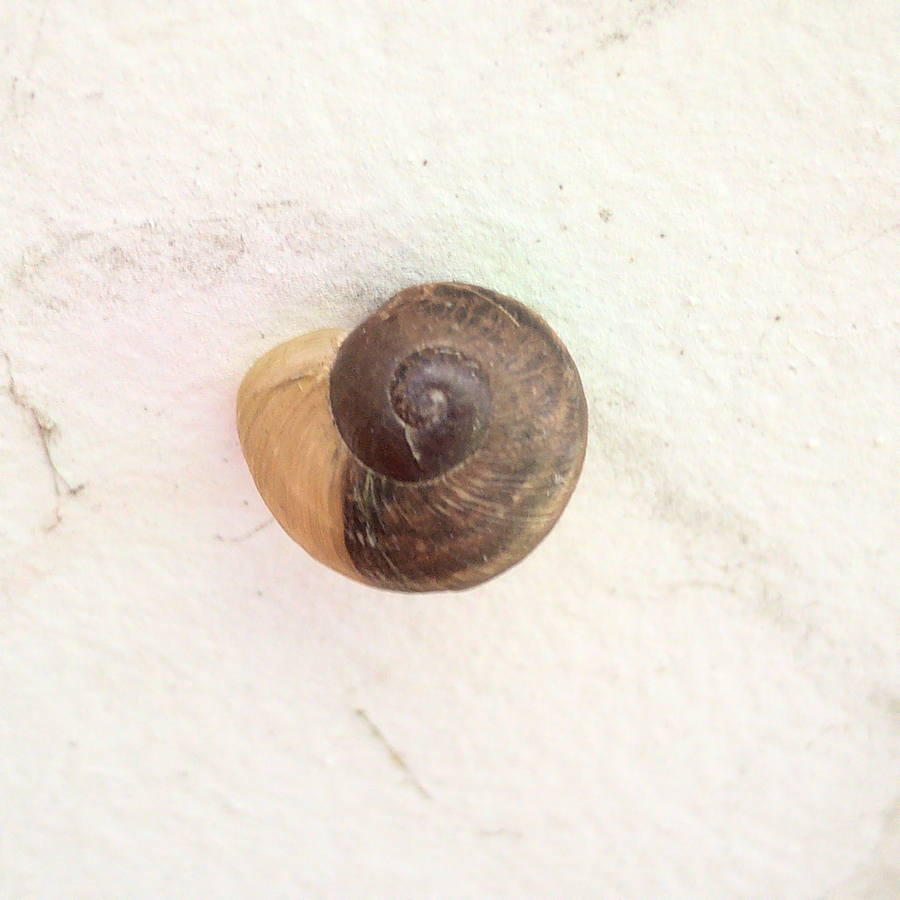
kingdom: Animalia
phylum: Mollusca
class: Gastropoda
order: Stylommatophora
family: Helicidae
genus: Cornu
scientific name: Cornu aspersum
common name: Brown garden snail
